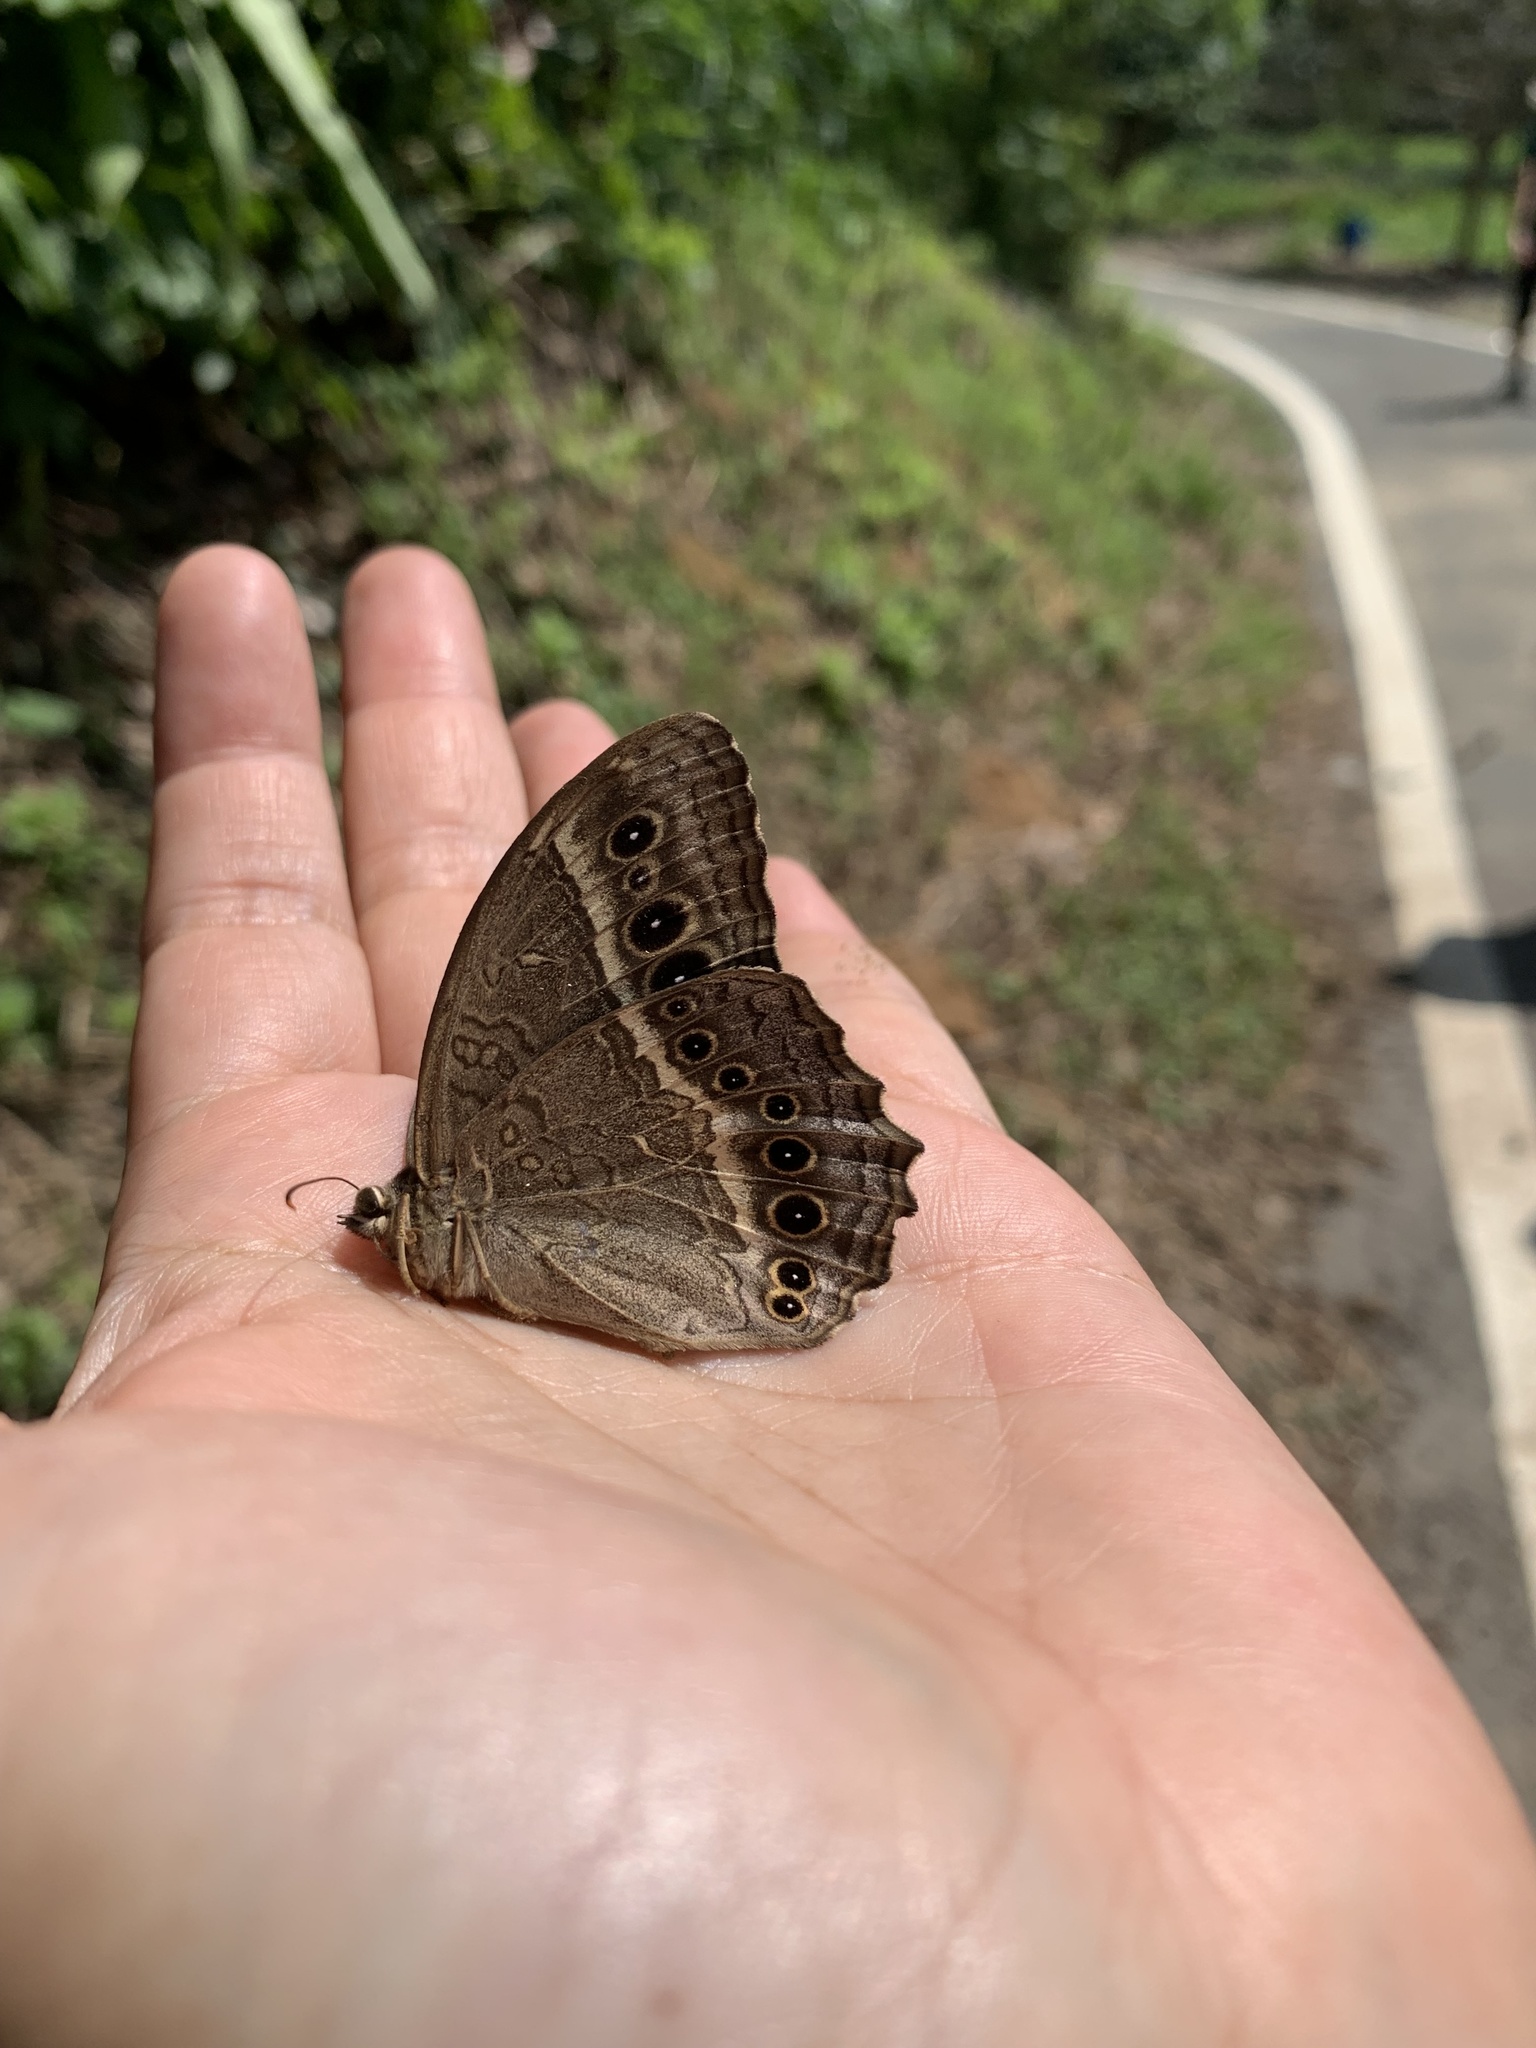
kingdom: Animalia
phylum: Arthropoda
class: Insecta
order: Lepidoptera
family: Nymphalidae
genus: Neope
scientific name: Neope muirheadii
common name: Black-spotted labyrinth
